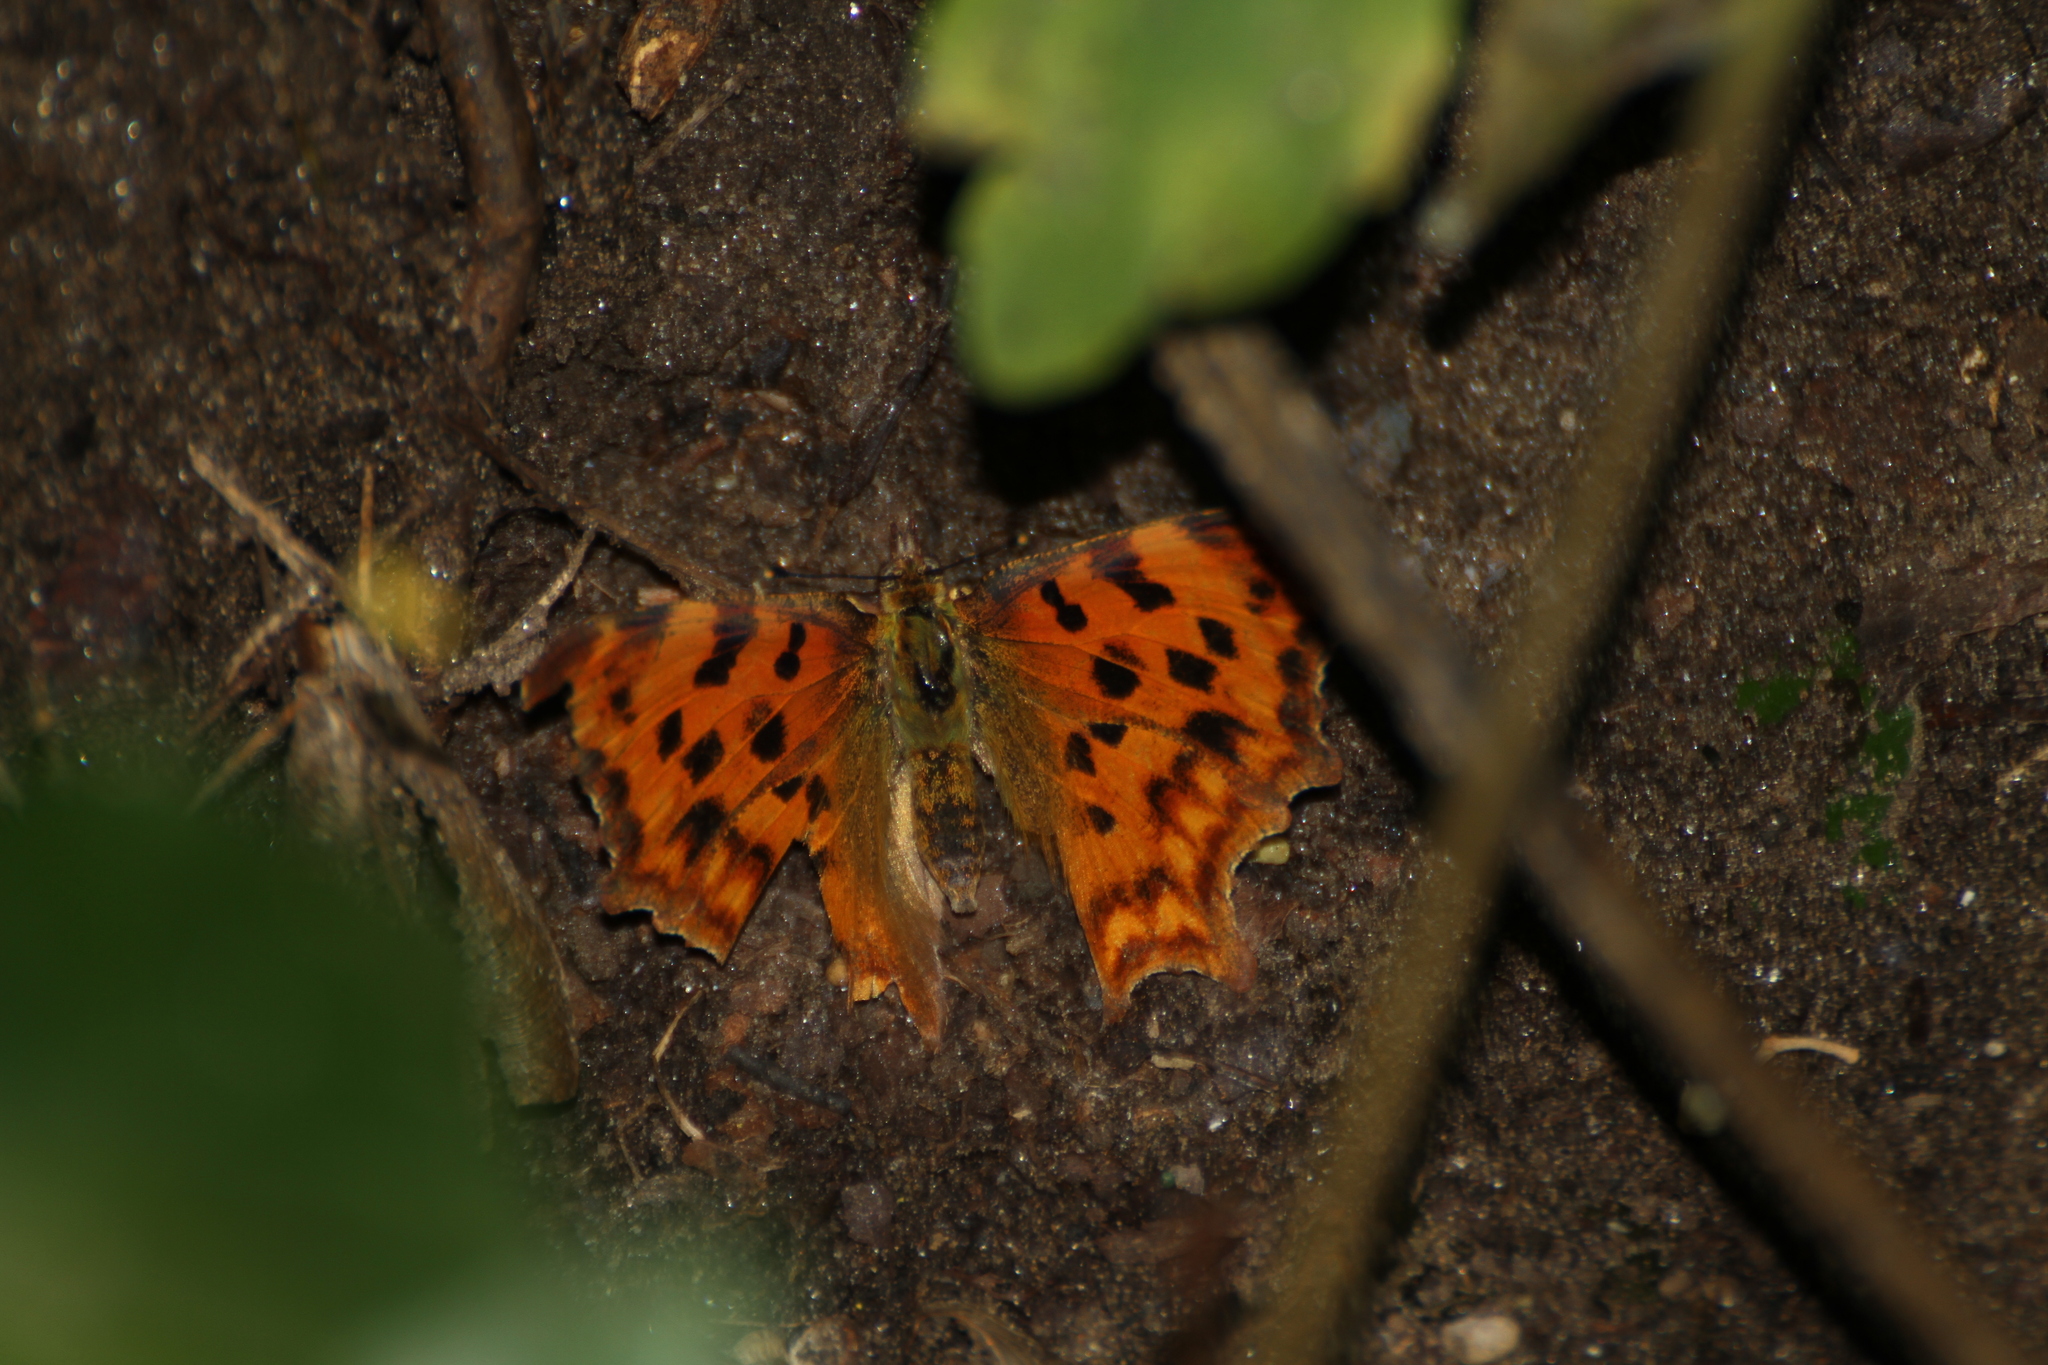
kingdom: Animalia
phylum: Arthropoda
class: Insecta
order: Lepidoptera
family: Nymphalidae
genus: Polygonia
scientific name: Polygonia c-album
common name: Comma
